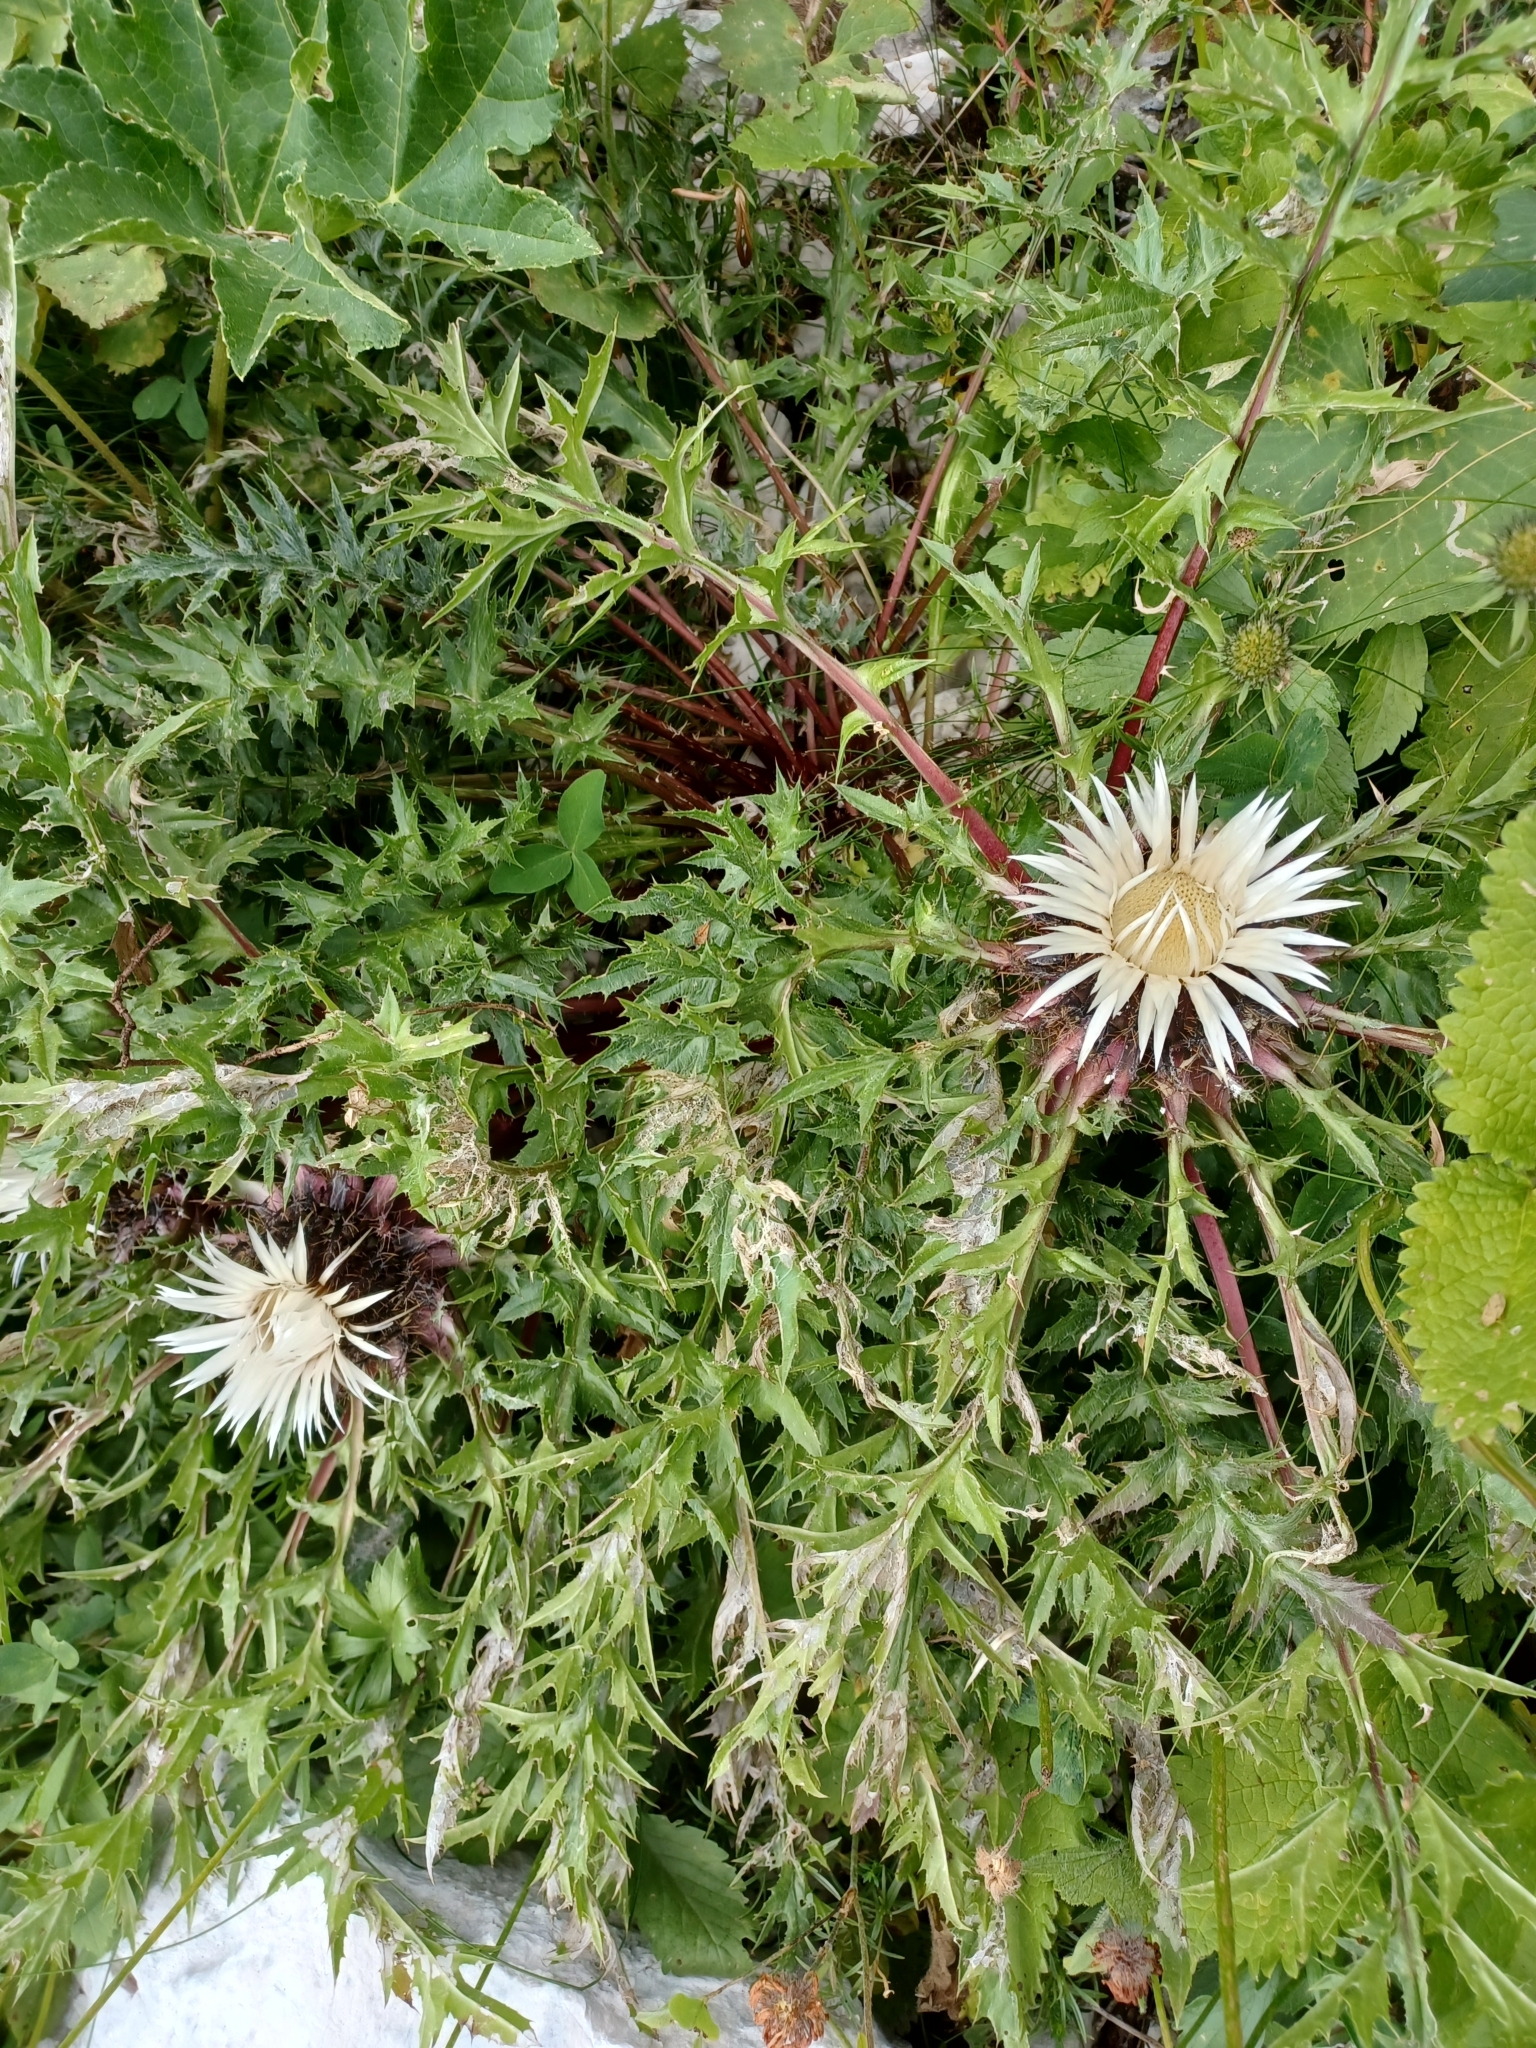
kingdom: Plantae
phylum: Tracheophyta
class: Magnoliopsida
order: Asterales
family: Asteraceae
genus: Carlina
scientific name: Carlina acaulis
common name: Stemless carline thistle
